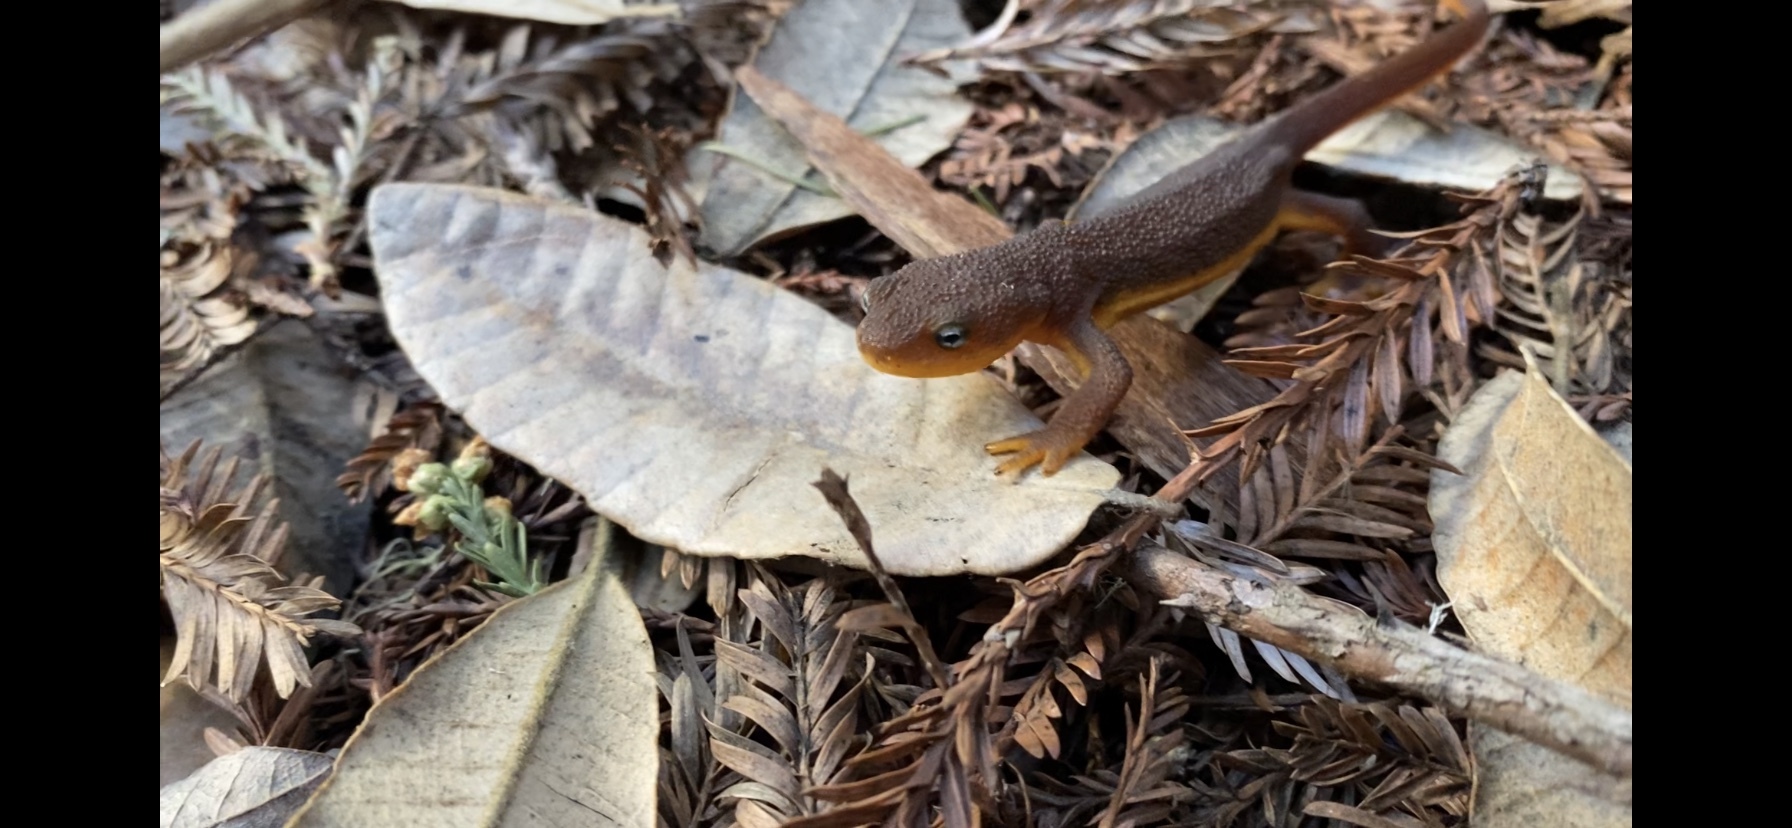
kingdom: Animalia
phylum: Chordata
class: Amphibia
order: Caudata
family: Salamandridae
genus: Taricha
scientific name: Taricha torosa
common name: California newt
